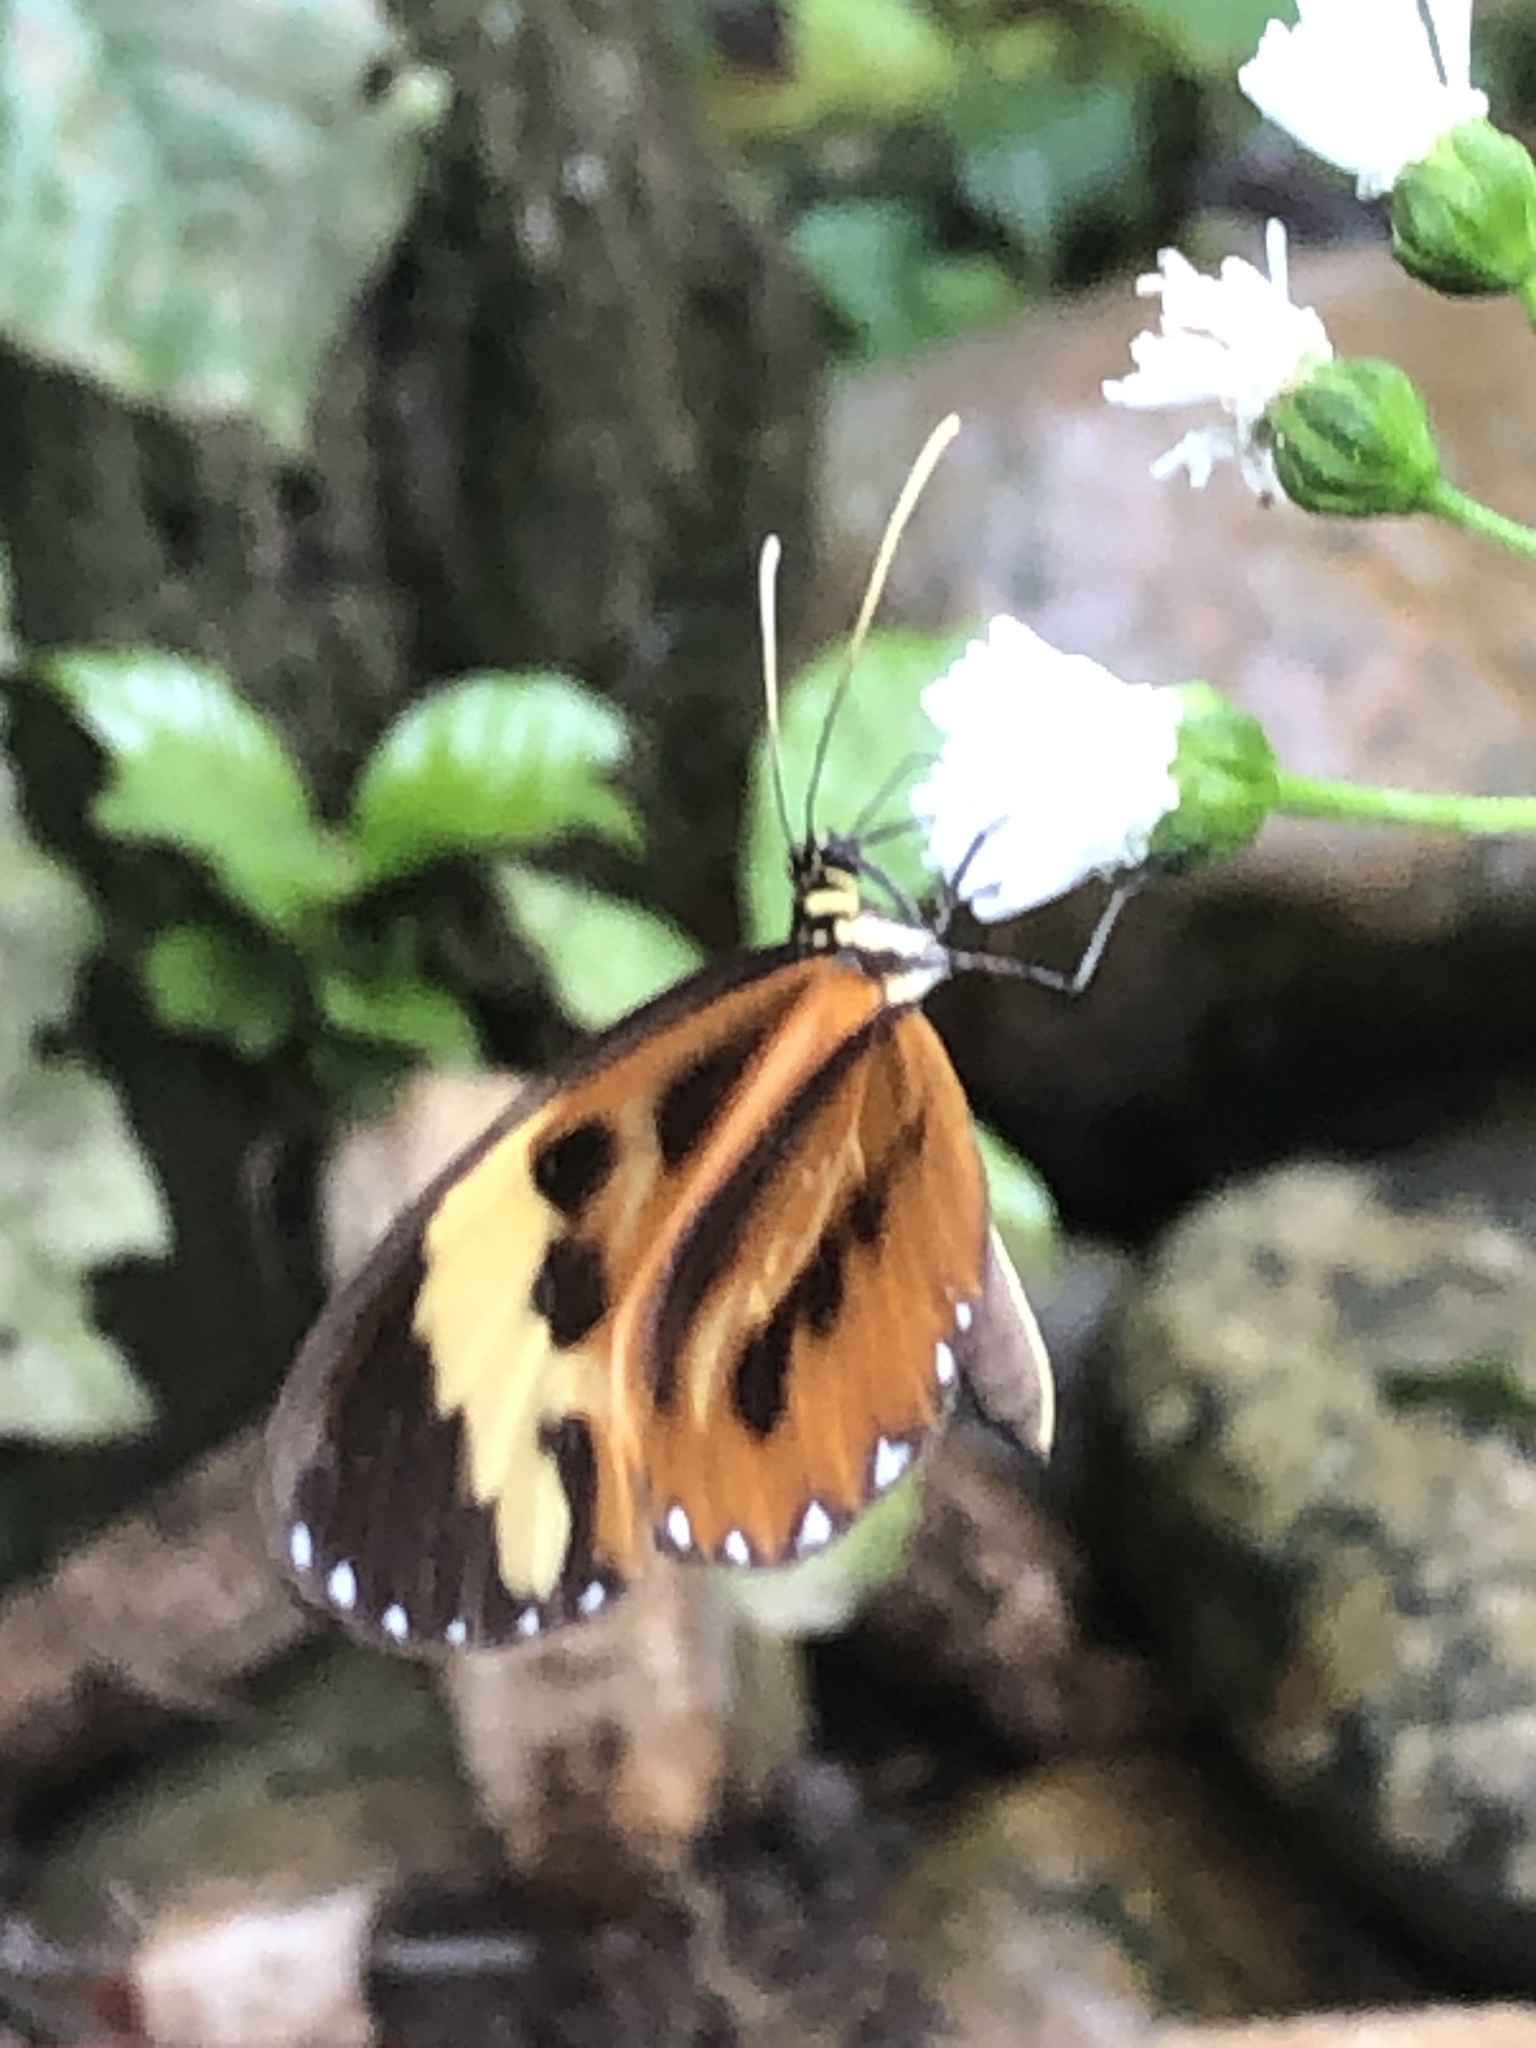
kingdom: Animalia
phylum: Arthropoda
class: Insecta
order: Lepidoptera
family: Nymphalidae
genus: Ceratinia
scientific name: Ceratinia tutia
